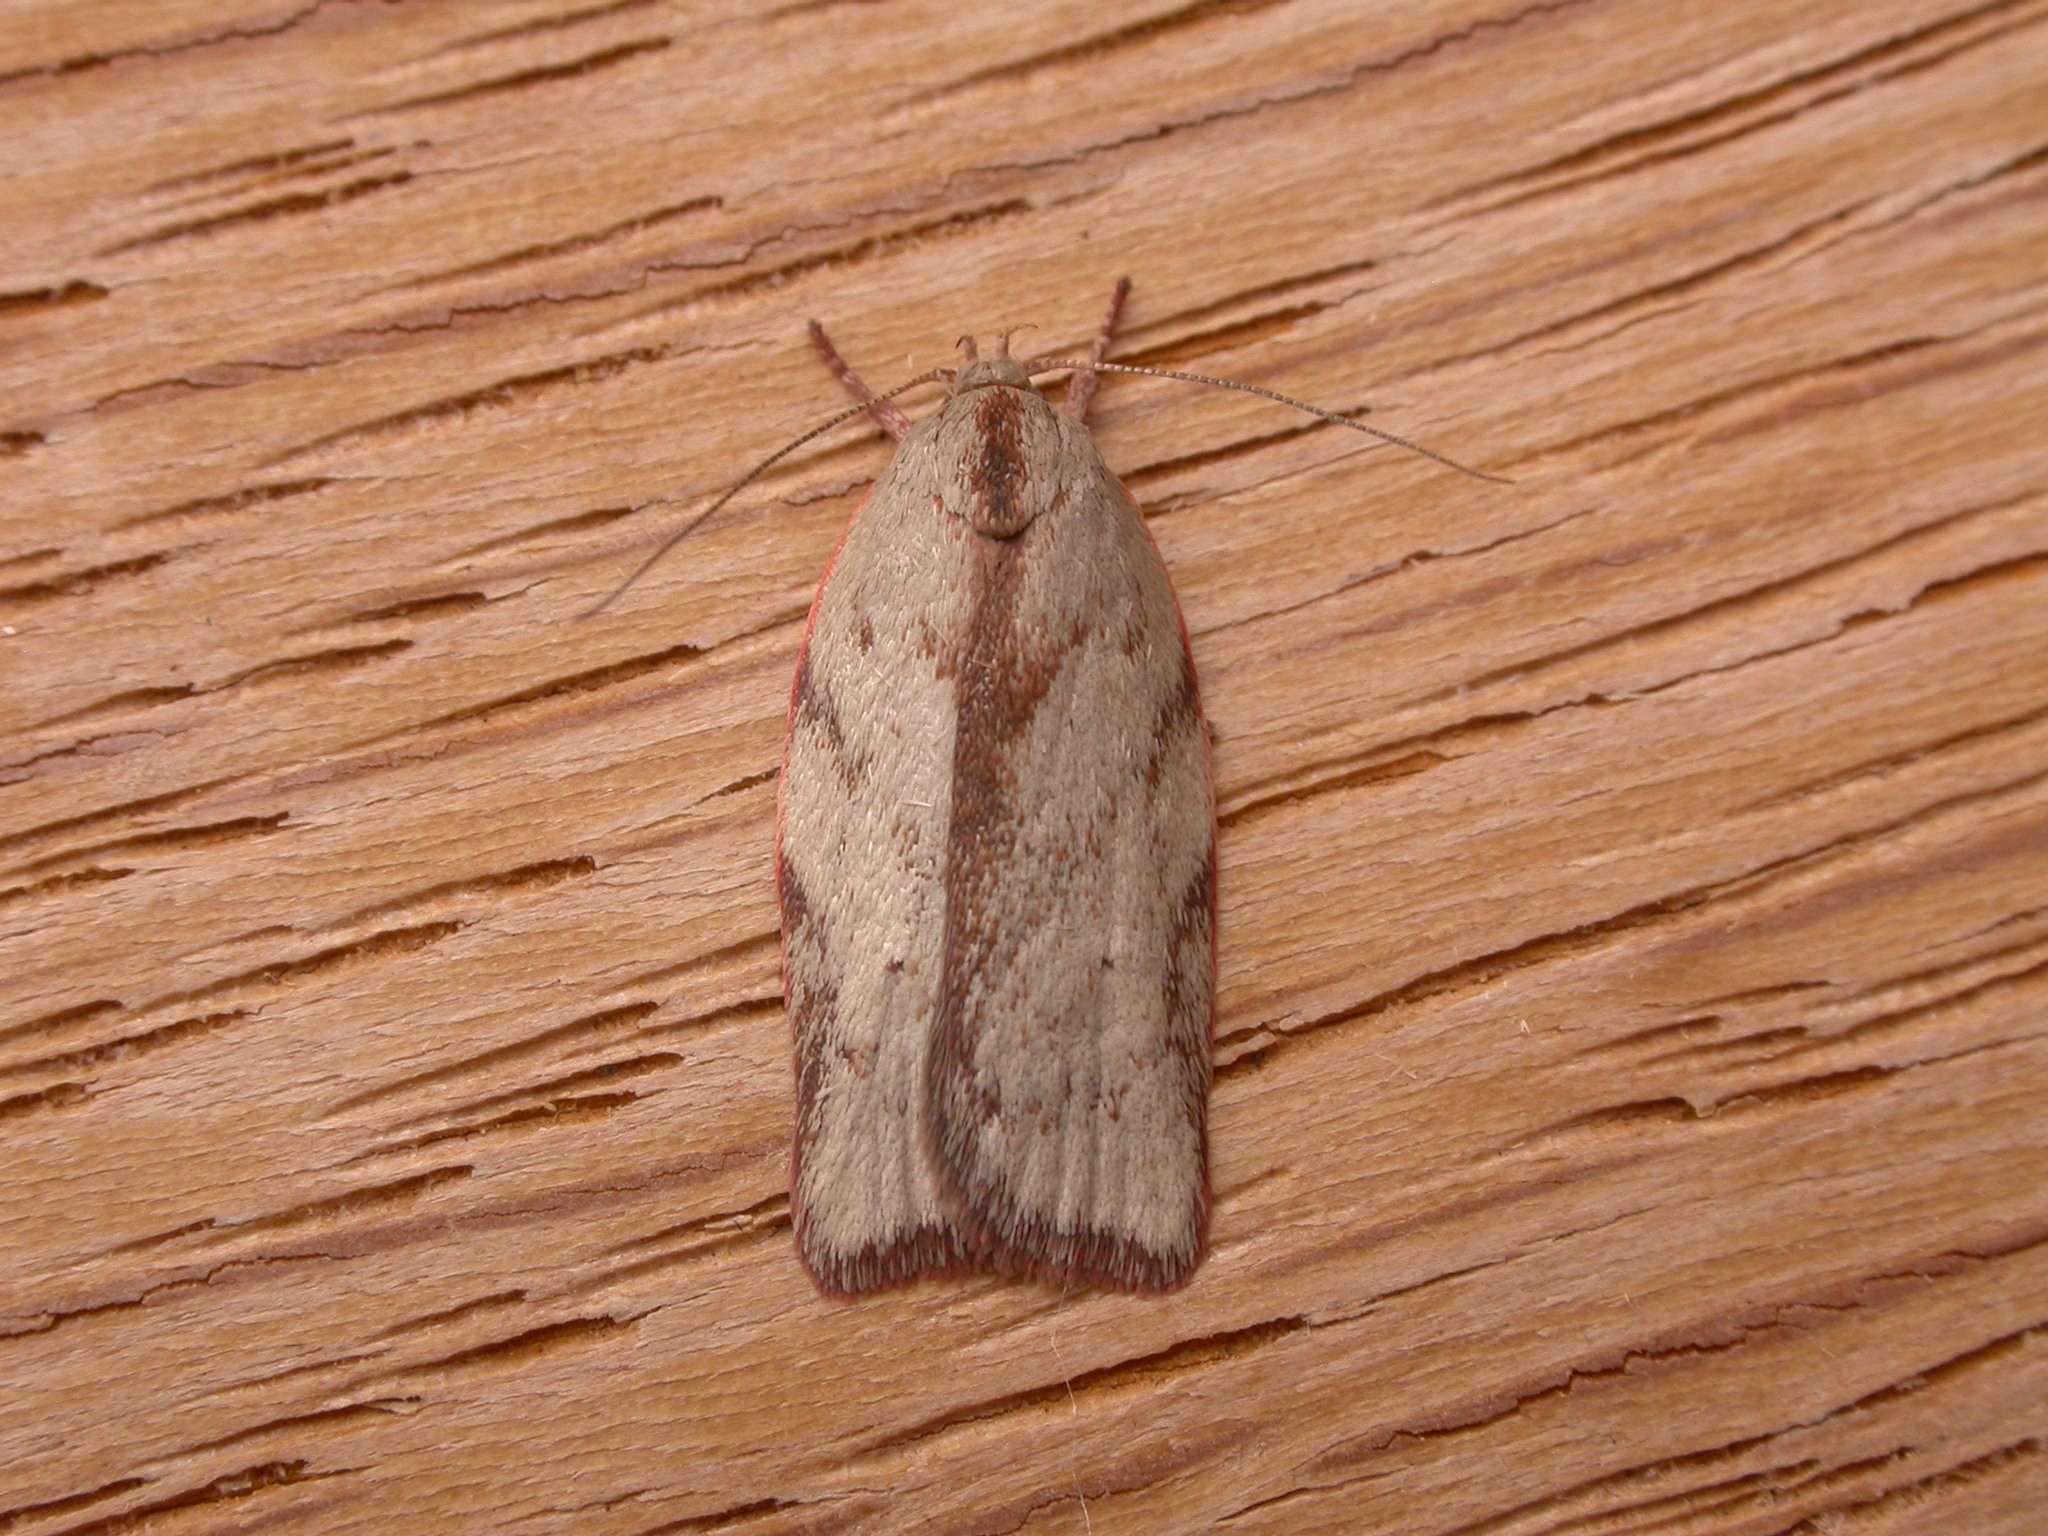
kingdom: Animalia
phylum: Arthropoda
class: Insecta
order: Lepidoptera
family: Oecophoridae
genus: Euchaetis
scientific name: Euchaetis inceptella
